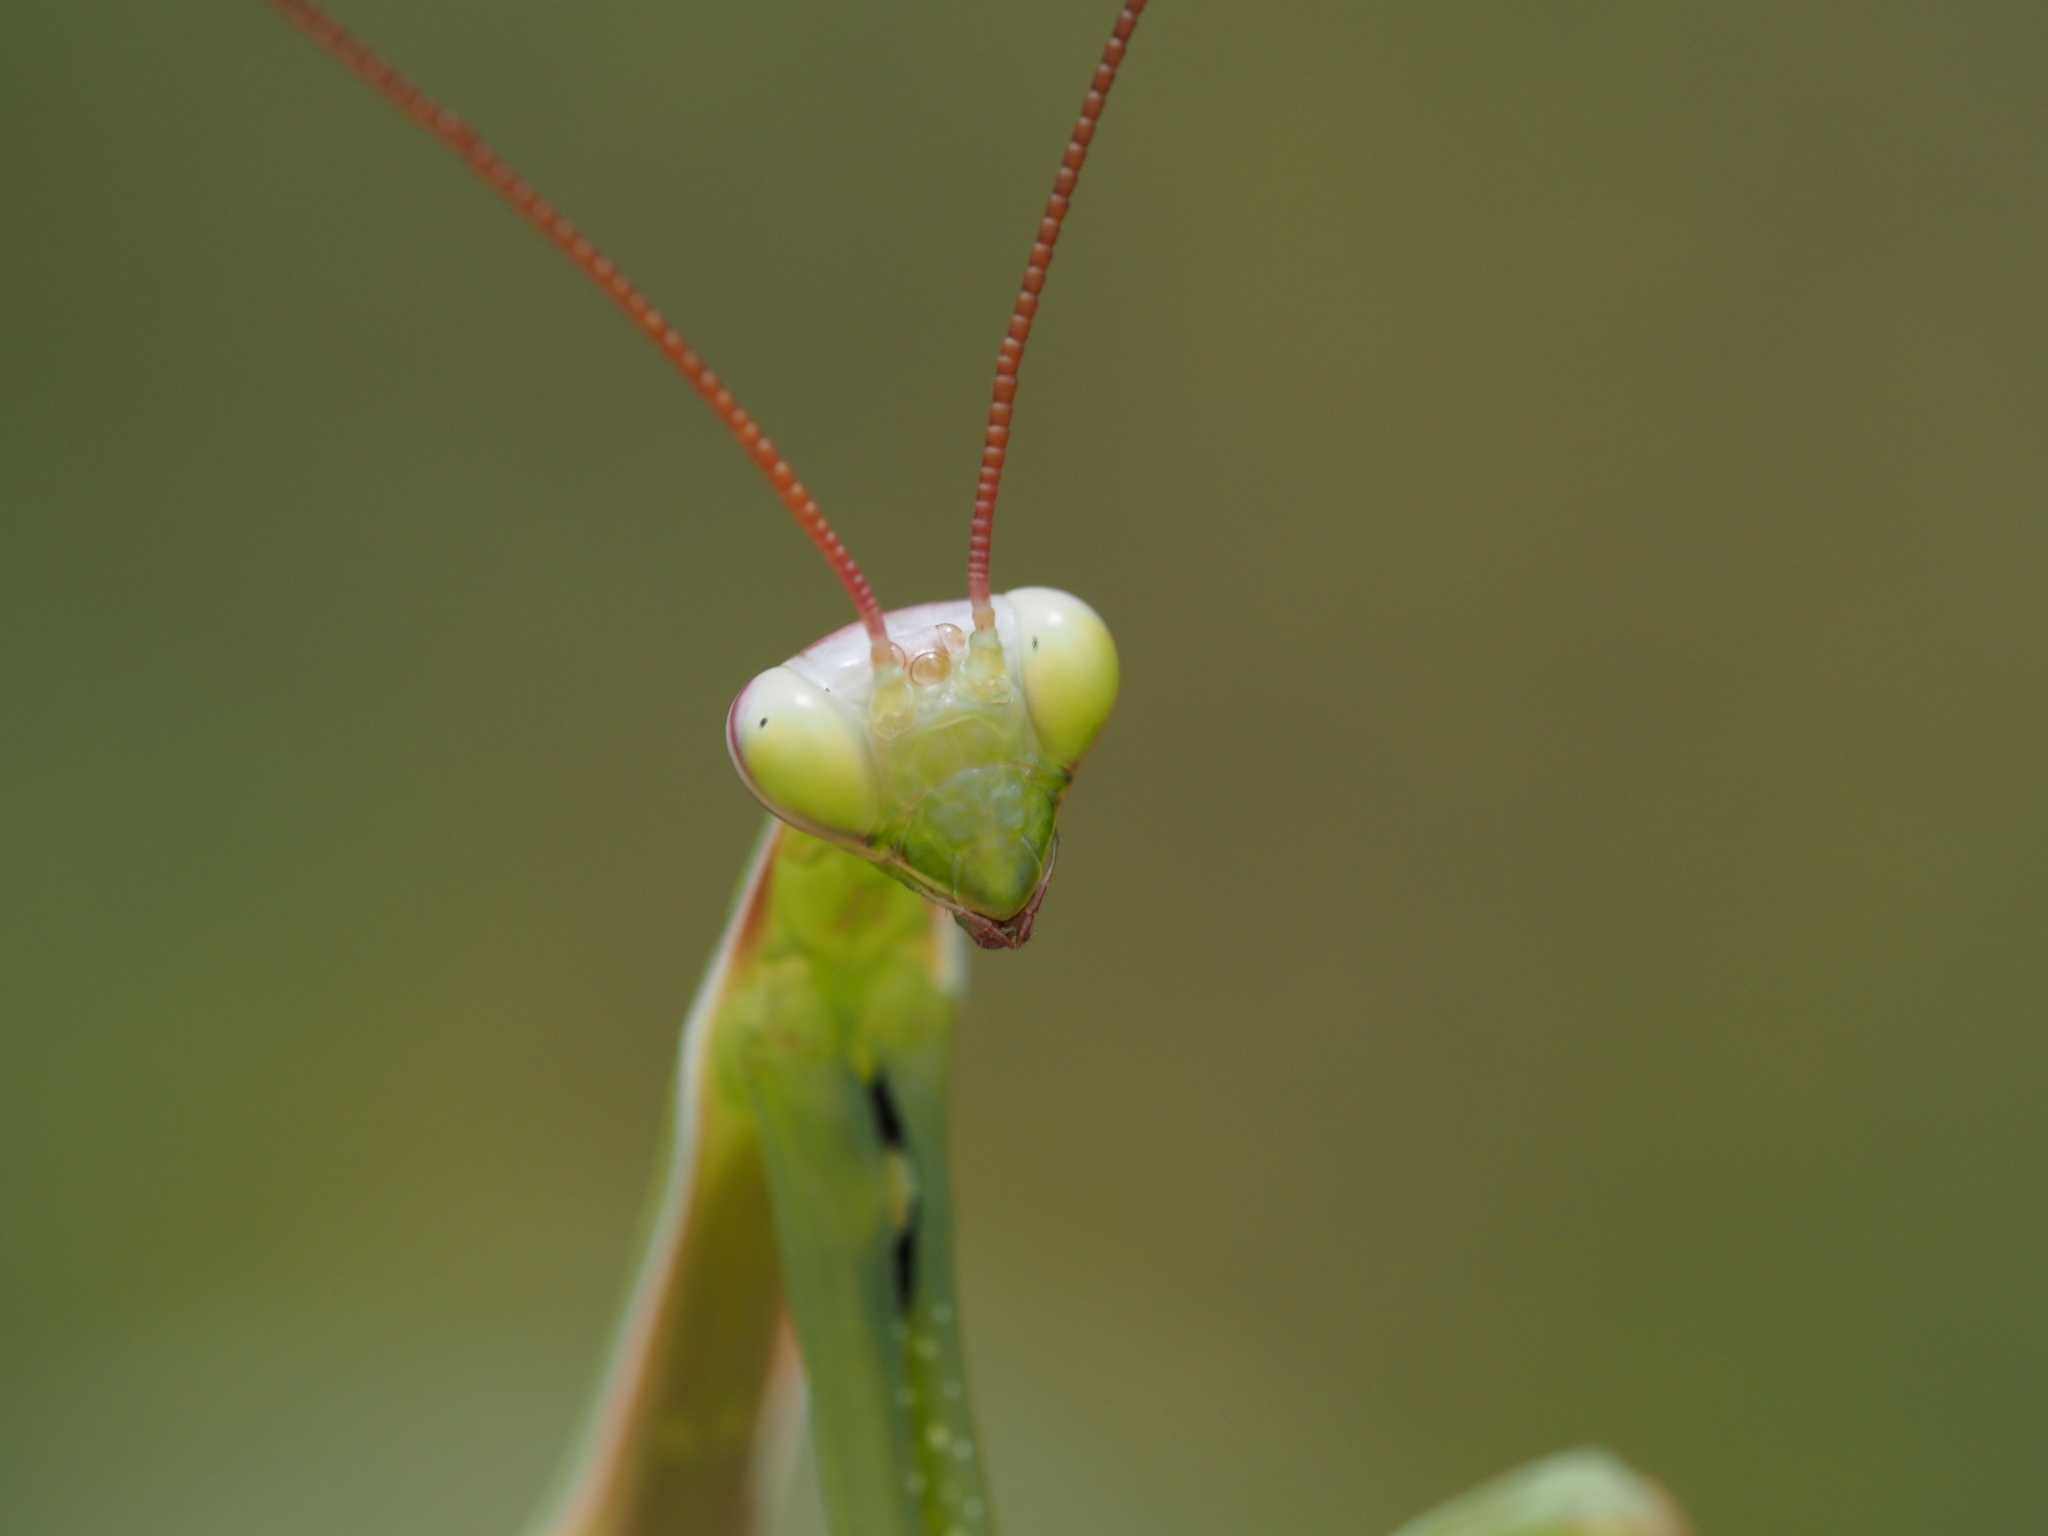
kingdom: Animalia
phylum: Arthropoda
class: Insecta
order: Mantodea
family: Mantidae
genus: Mantis
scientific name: Mantis religiosa
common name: Praying mantis
